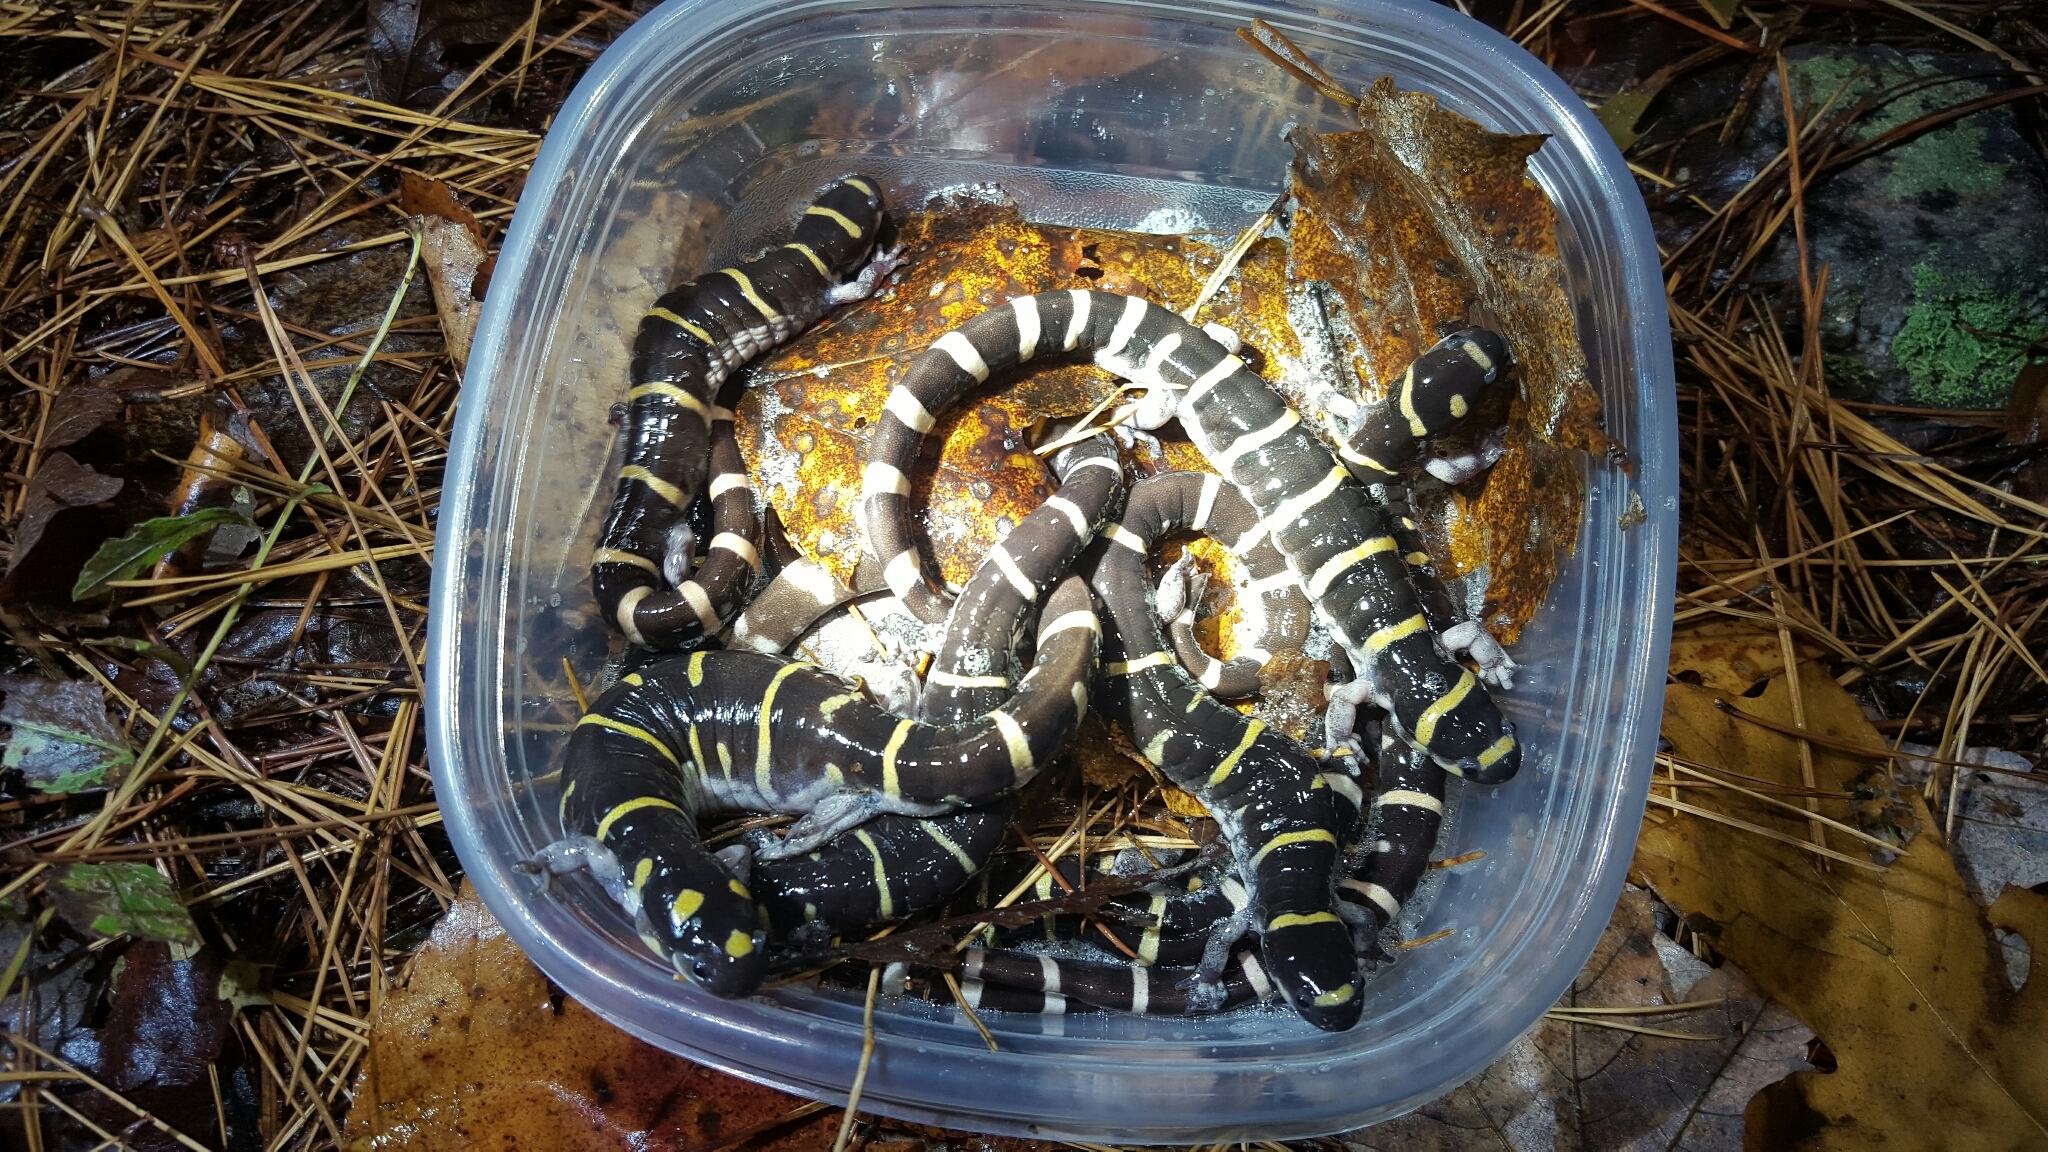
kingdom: Animalia
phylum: Chordata
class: Amphibia
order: Caudata
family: Ambystomatidae
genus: Ambystoma
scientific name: Ambystoma annulatum
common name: Ringed salamander
